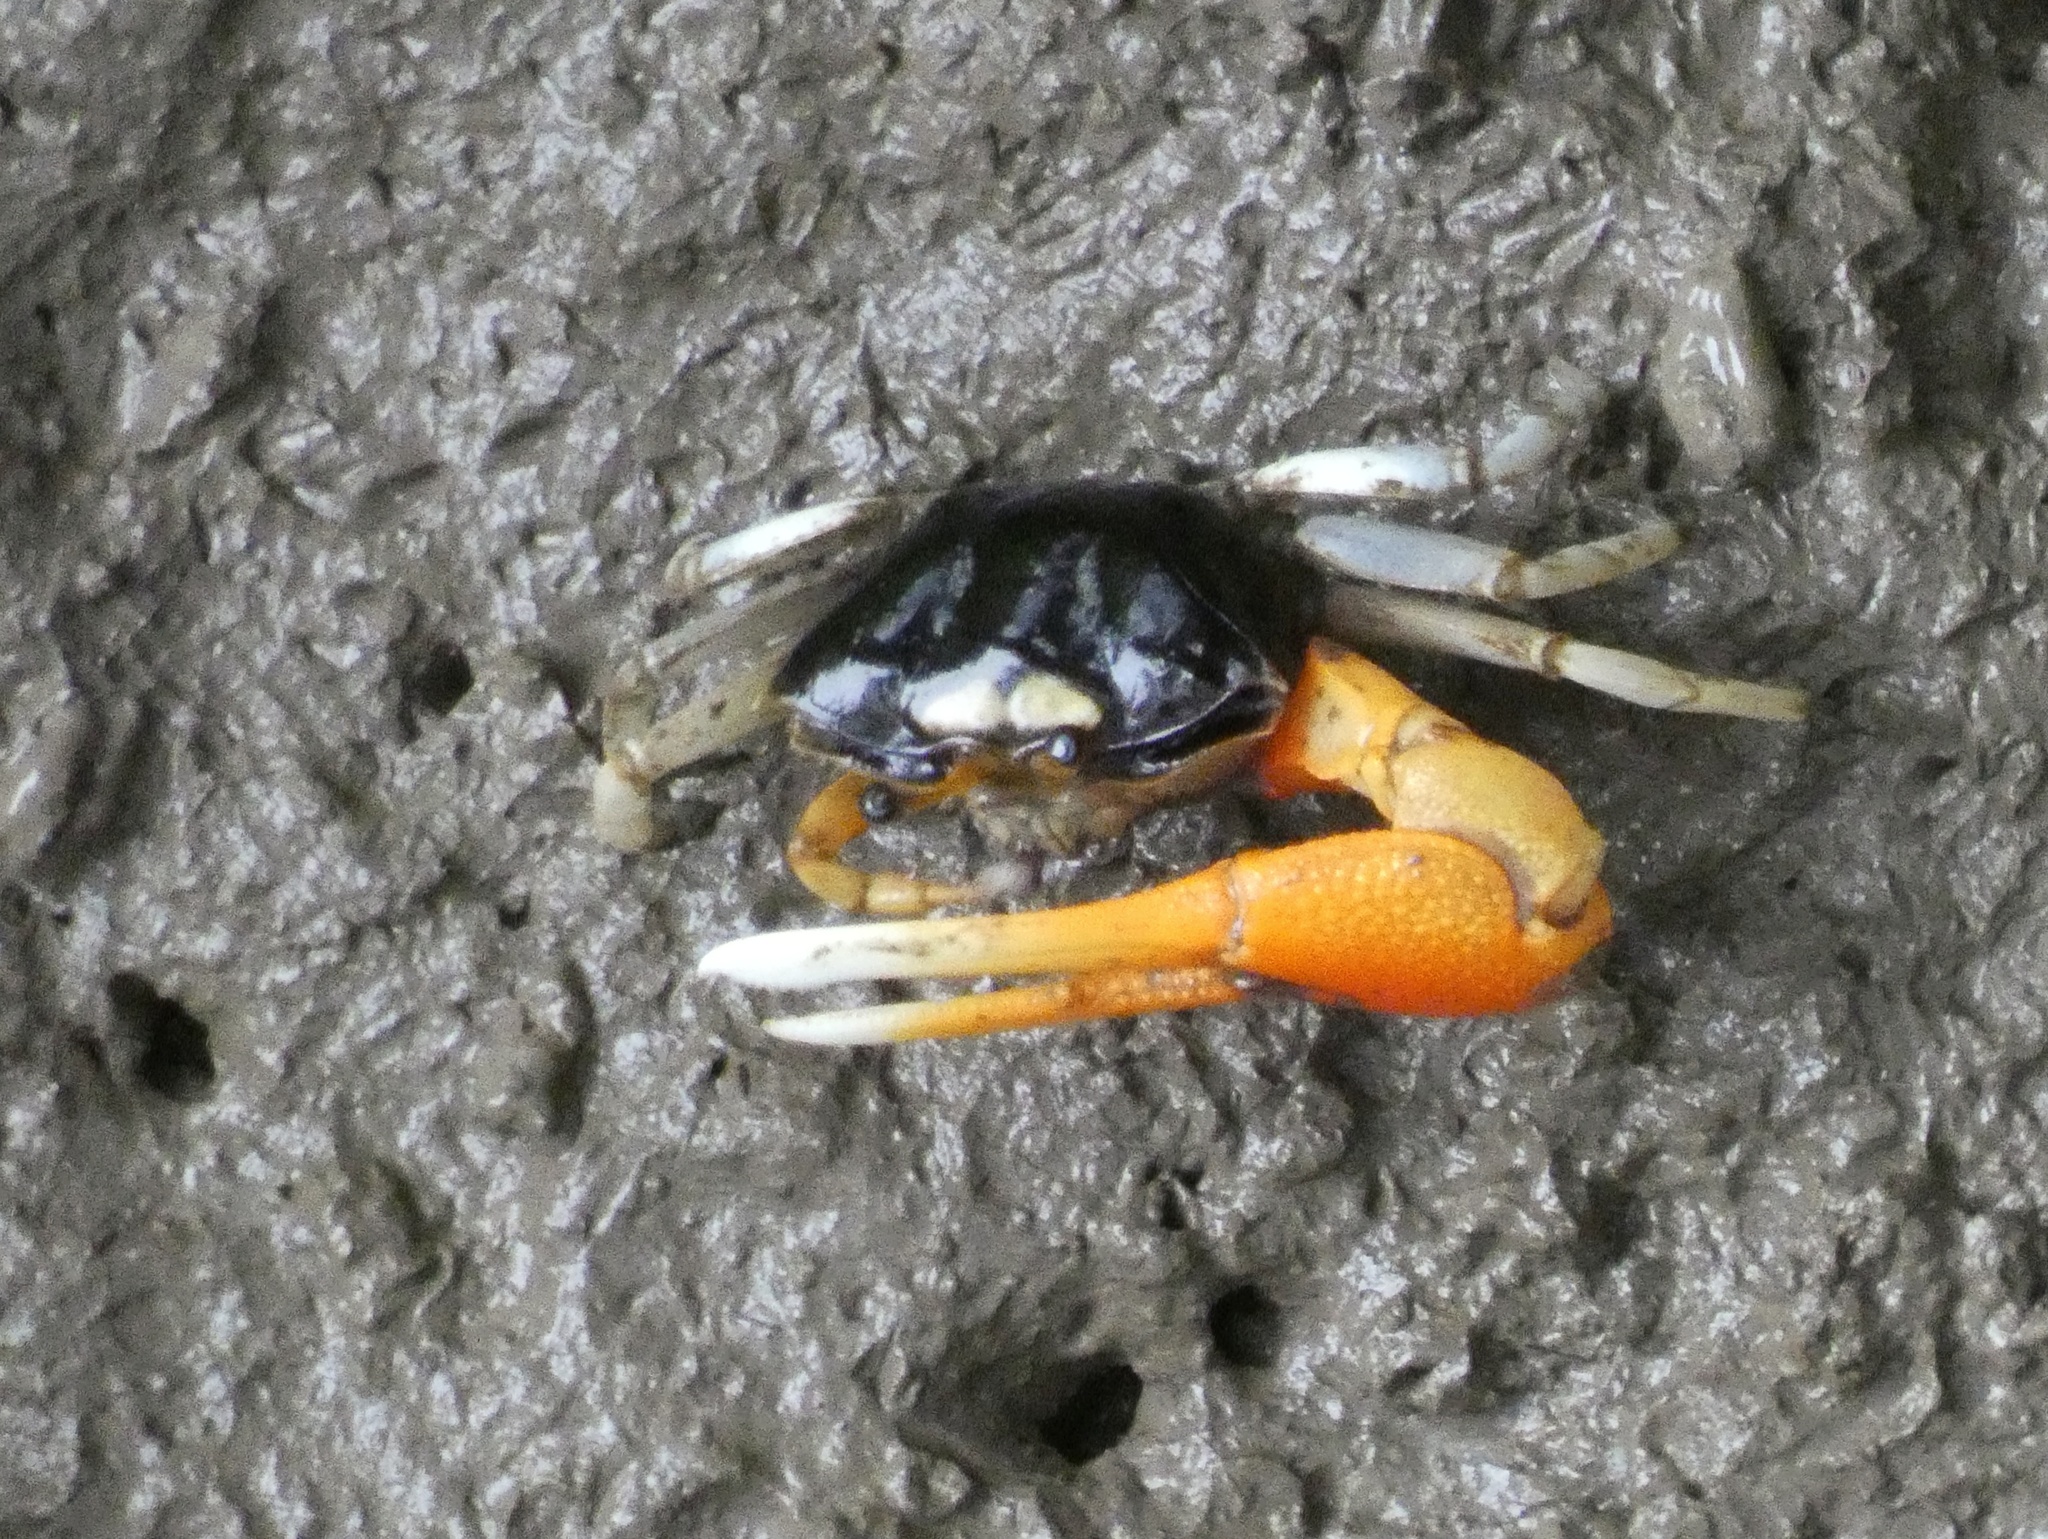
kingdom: Animalia
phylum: Arthropoda
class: Malacostraca
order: Decapoda
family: Ocypodidae
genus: Tubuca
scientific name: Tubuca coarctata
